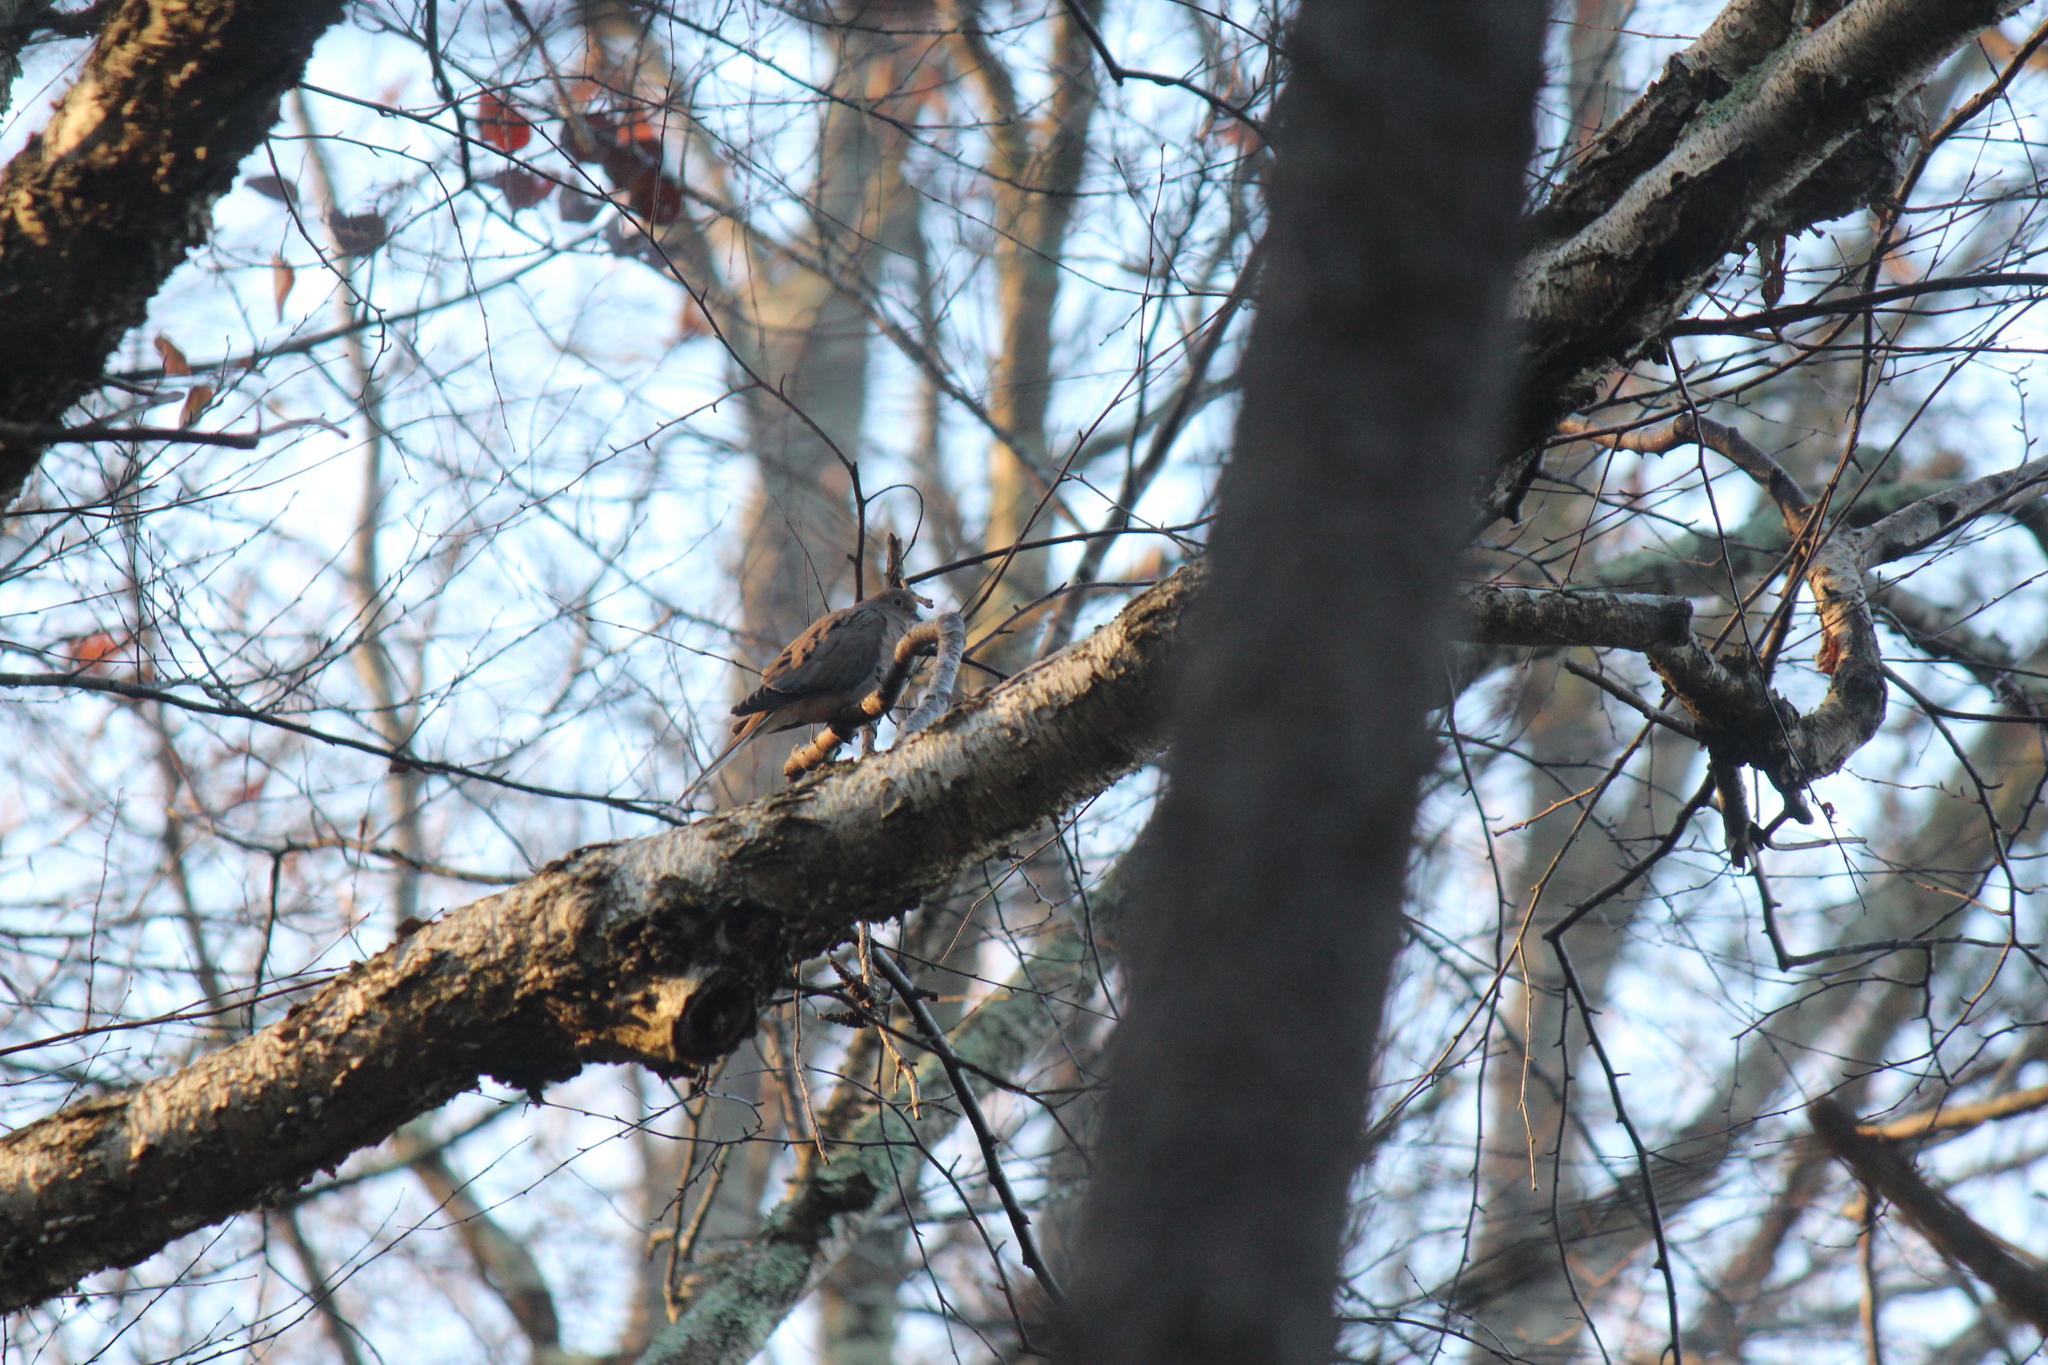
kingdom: Animalia
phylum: Chordata
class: Aves
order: Columbiformes
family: Columbidae
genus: Zenaida
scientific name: Zenaida macroura
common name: Mourning dove
